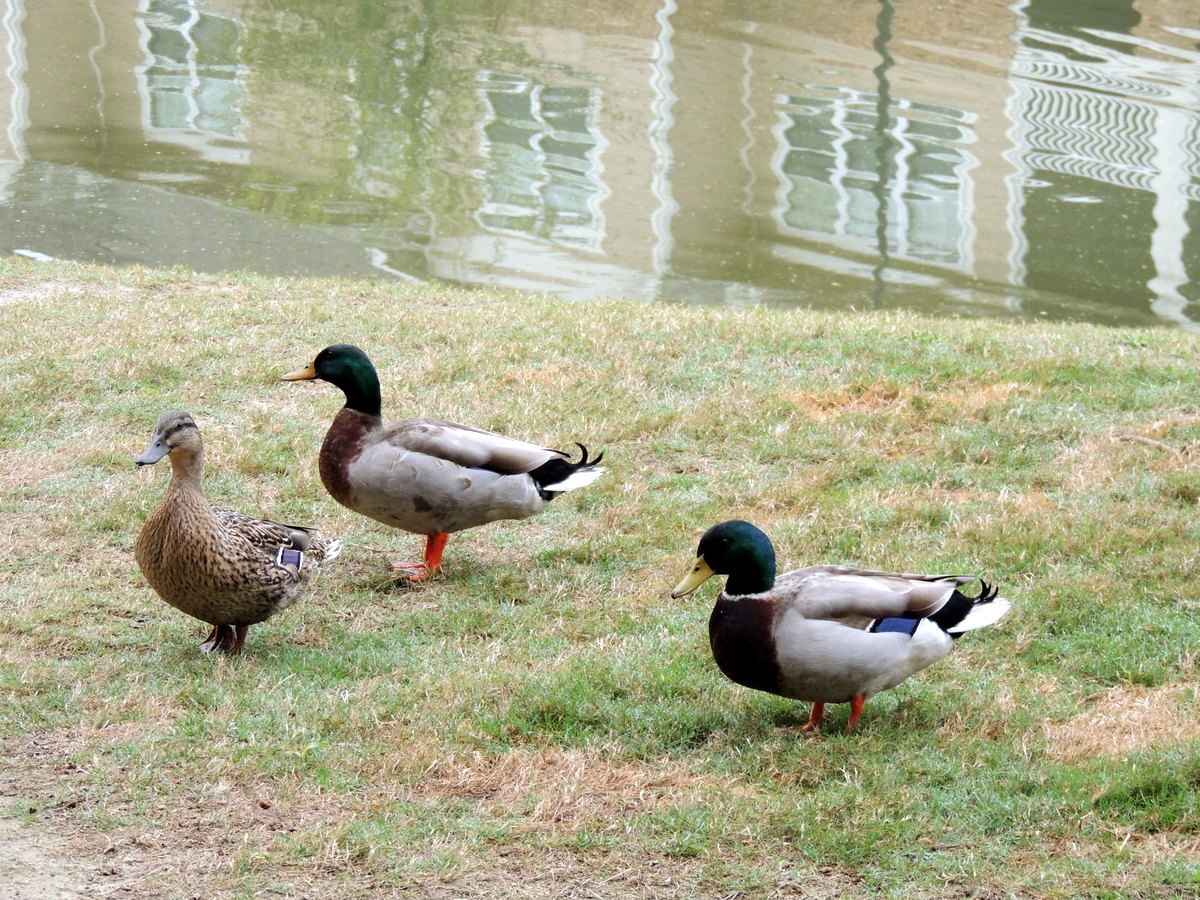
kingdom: Animalia
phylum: Chordata
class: Aves
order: Anseriformes
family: Anatidae
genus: Anas
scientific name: Anas platyrhynchos
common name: Mallard
